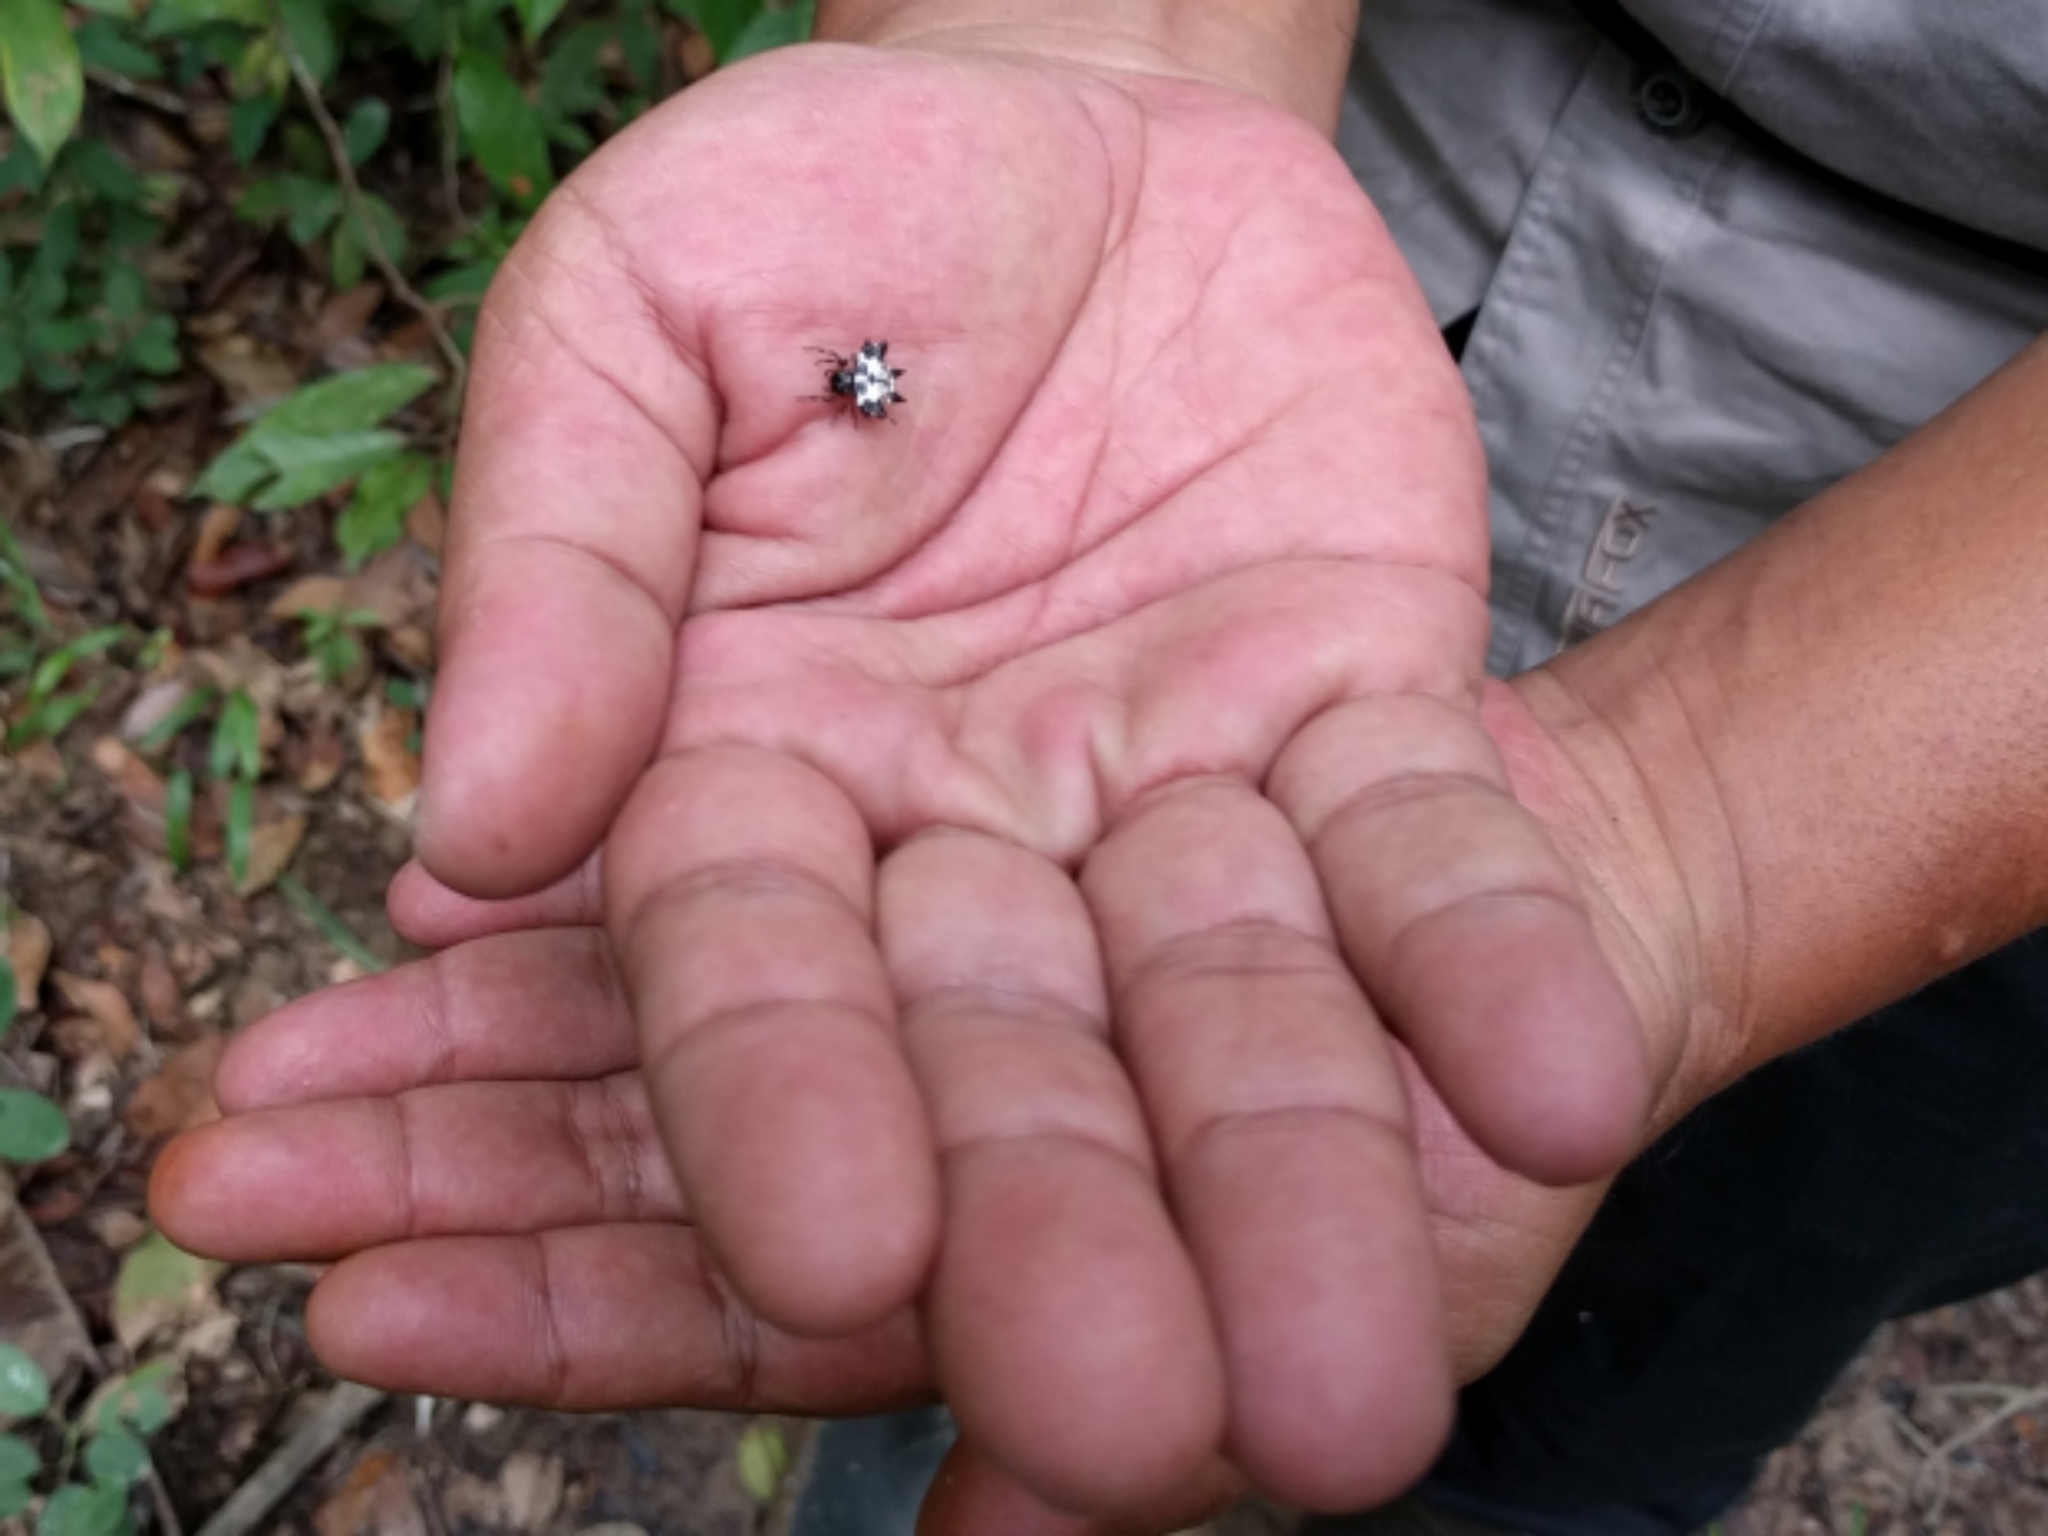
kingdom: Animalia
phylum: Arthropoda
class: Arachnida
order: Araneae
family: Araneidae
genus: Gasteracantha
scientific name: Gasteracantha kuhli
